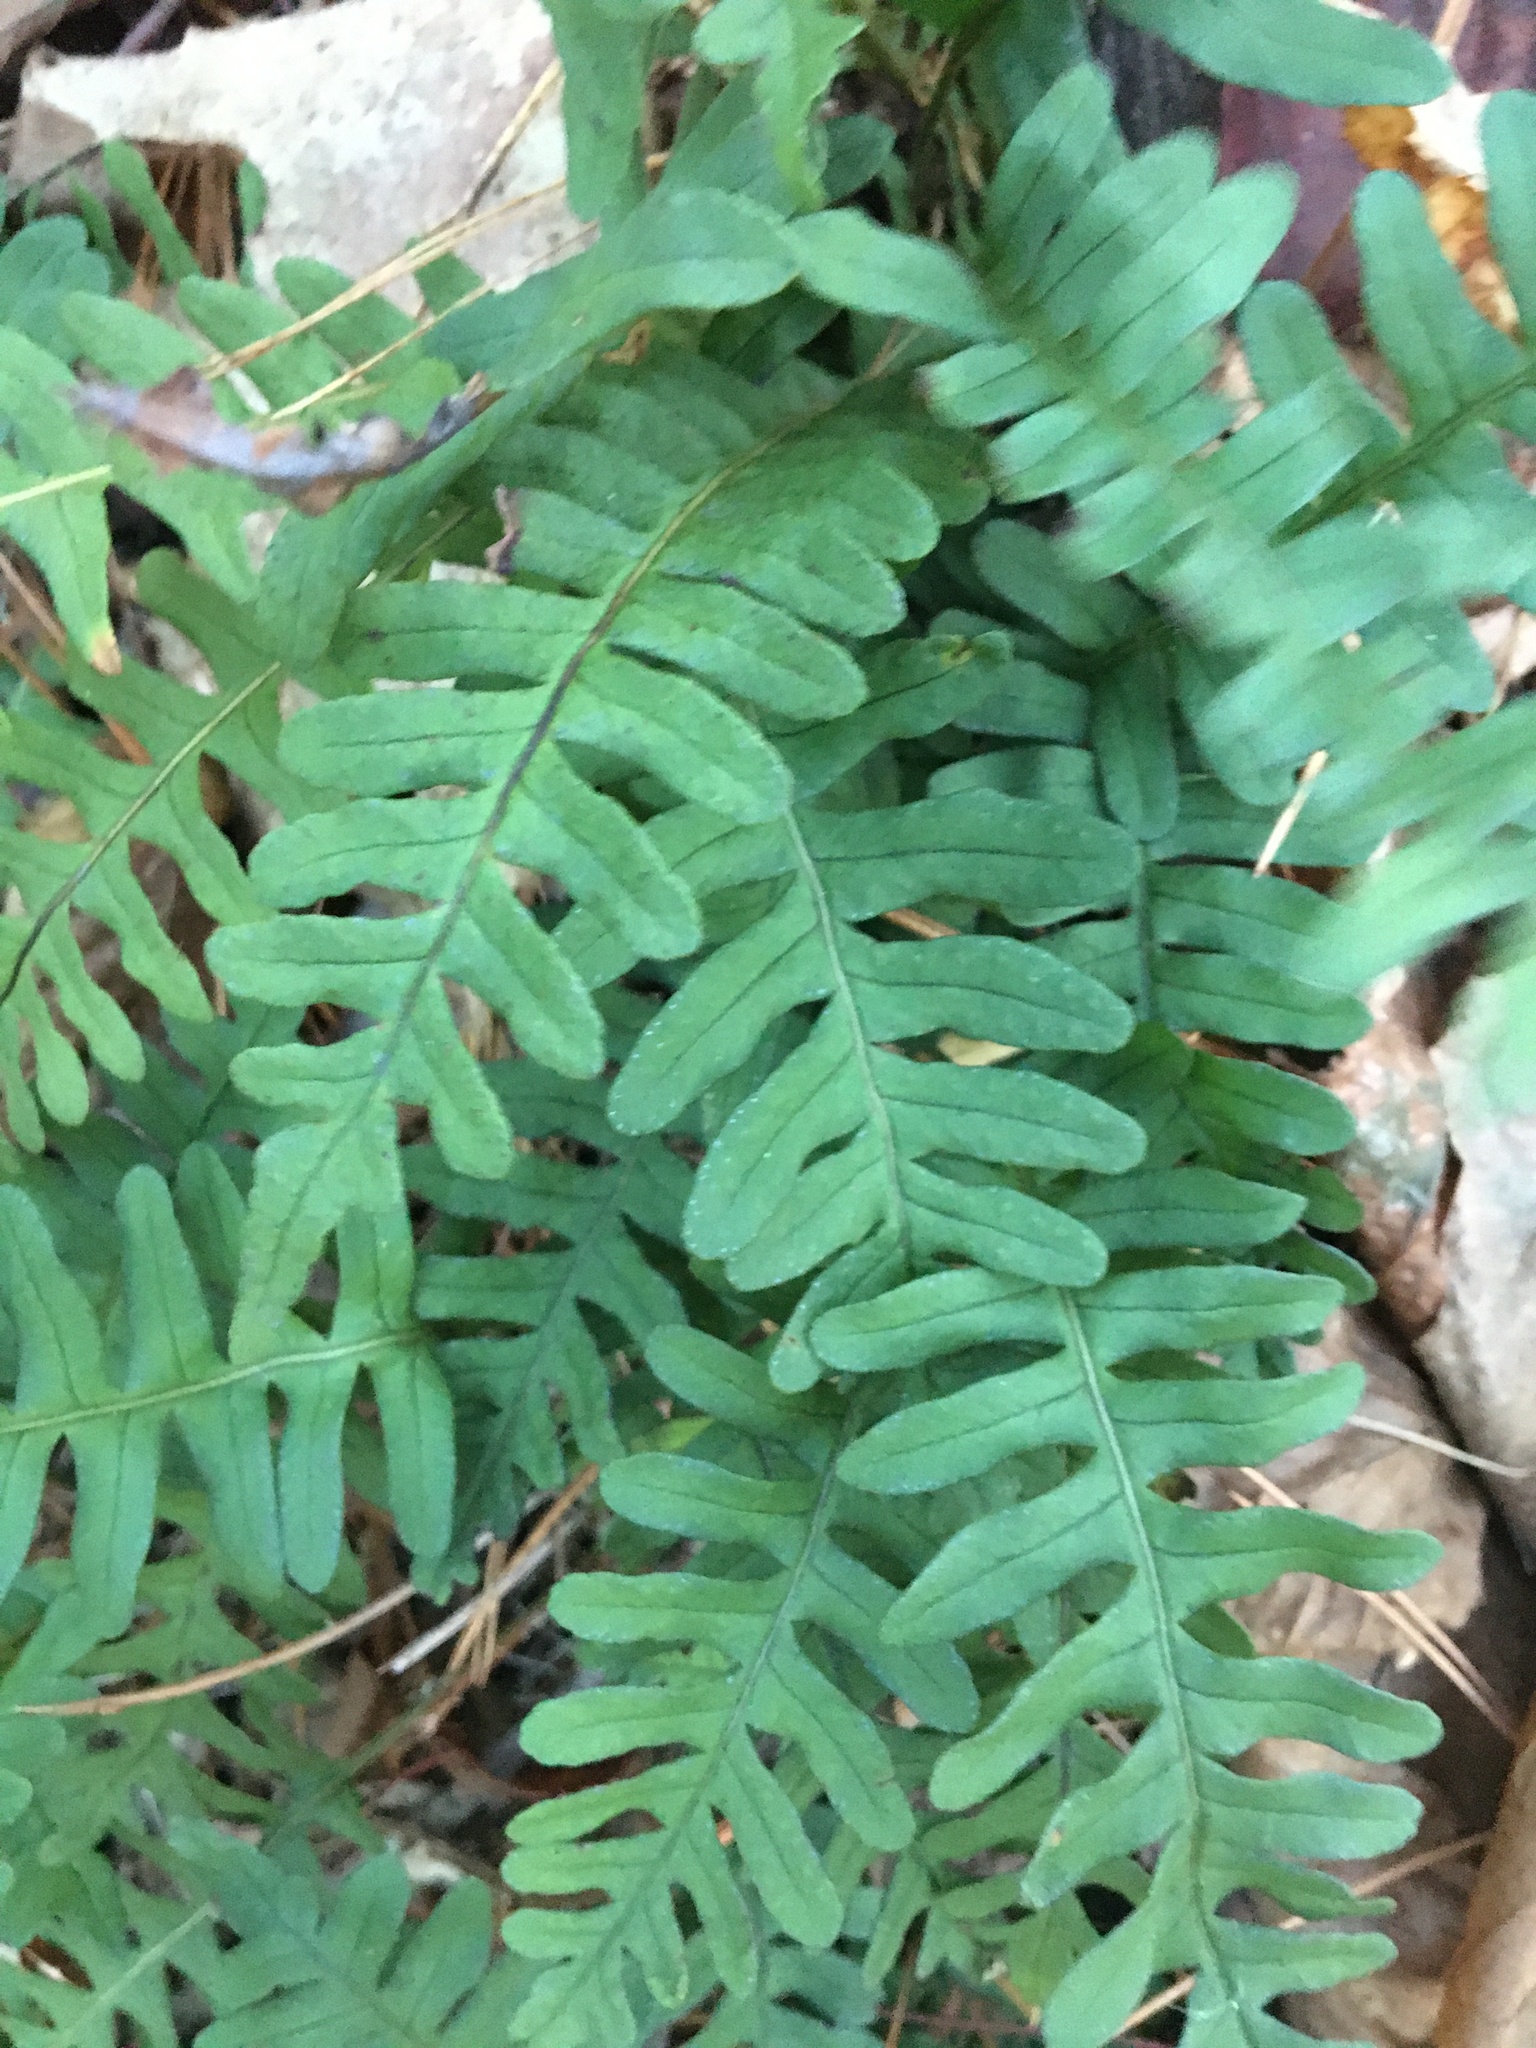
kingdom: Plantae
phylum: Tracheophyta
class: Polypodiopsida
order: Polypodiales
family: Polypodiaceae
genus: Polypodium
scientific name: Polypodium virginianum
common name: American wall fern
